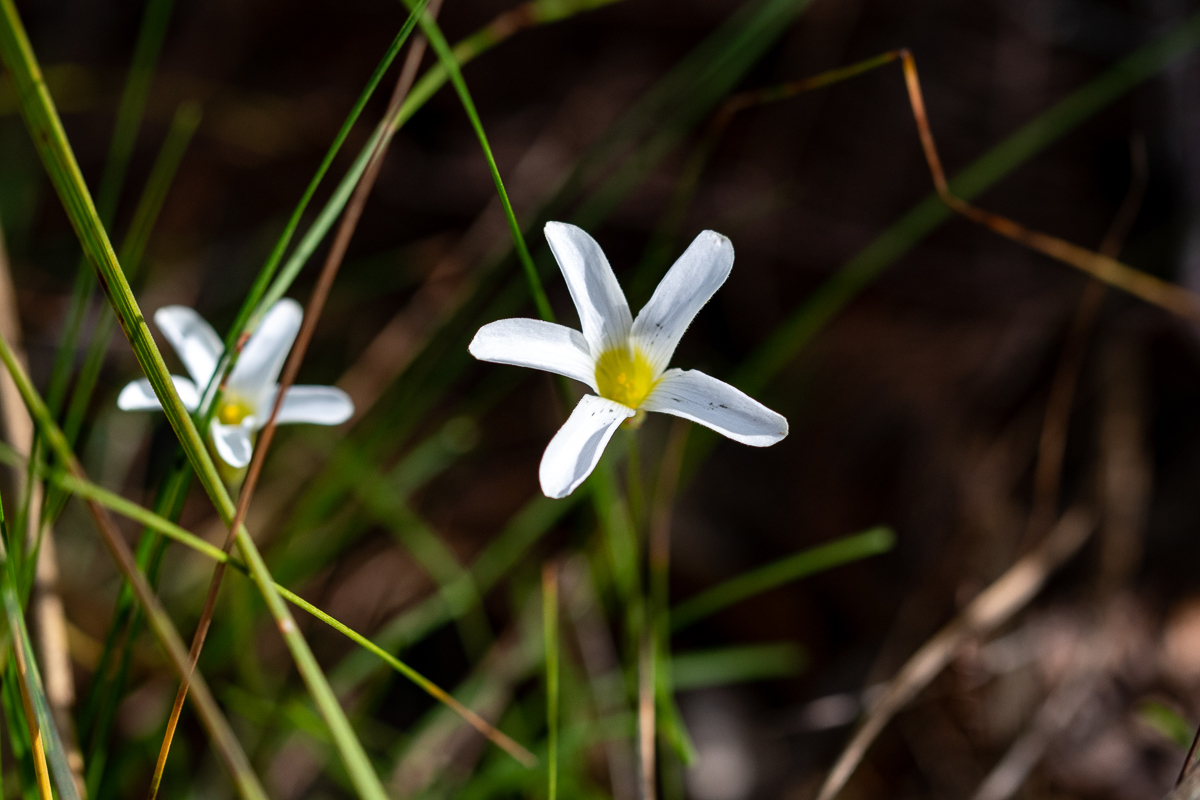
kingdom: Plantae
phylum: Tracheophyta
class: Magnoliopsida
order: Oxalidales
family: Oxalidaceae
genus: Oxalis
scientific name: Oxalis polyphylla
